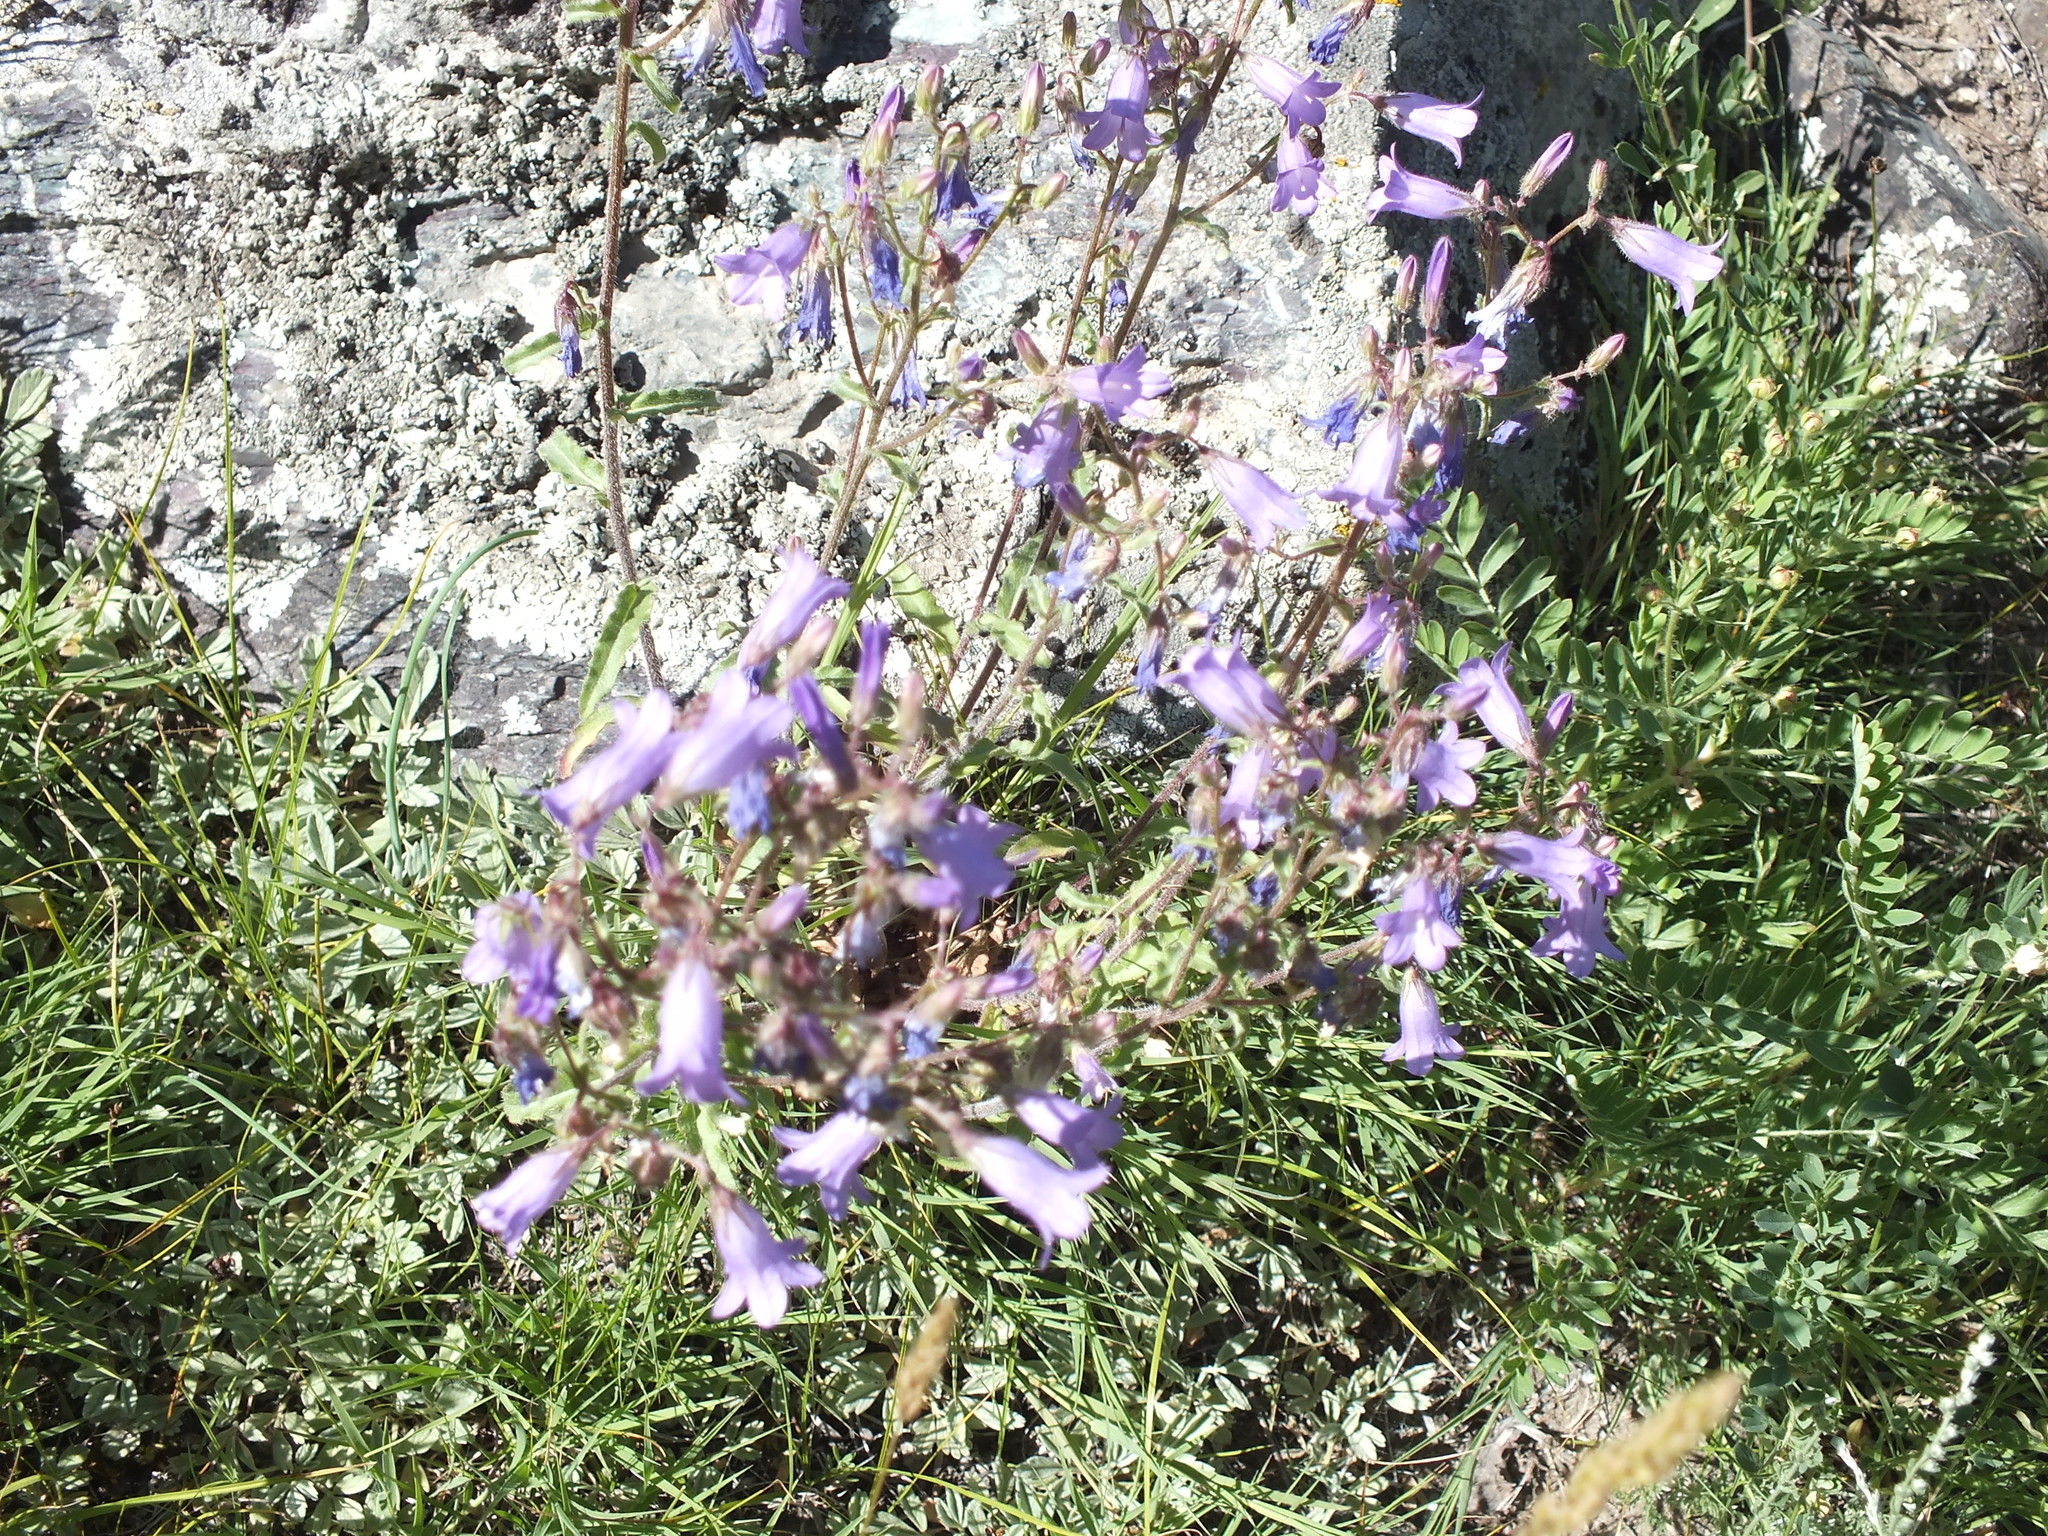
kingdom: Plantae
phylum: Tracheophyta
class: Magnoliopsida
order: Asterales
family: Campanulaceae
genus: Campanula
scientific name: Campanula sibirica
